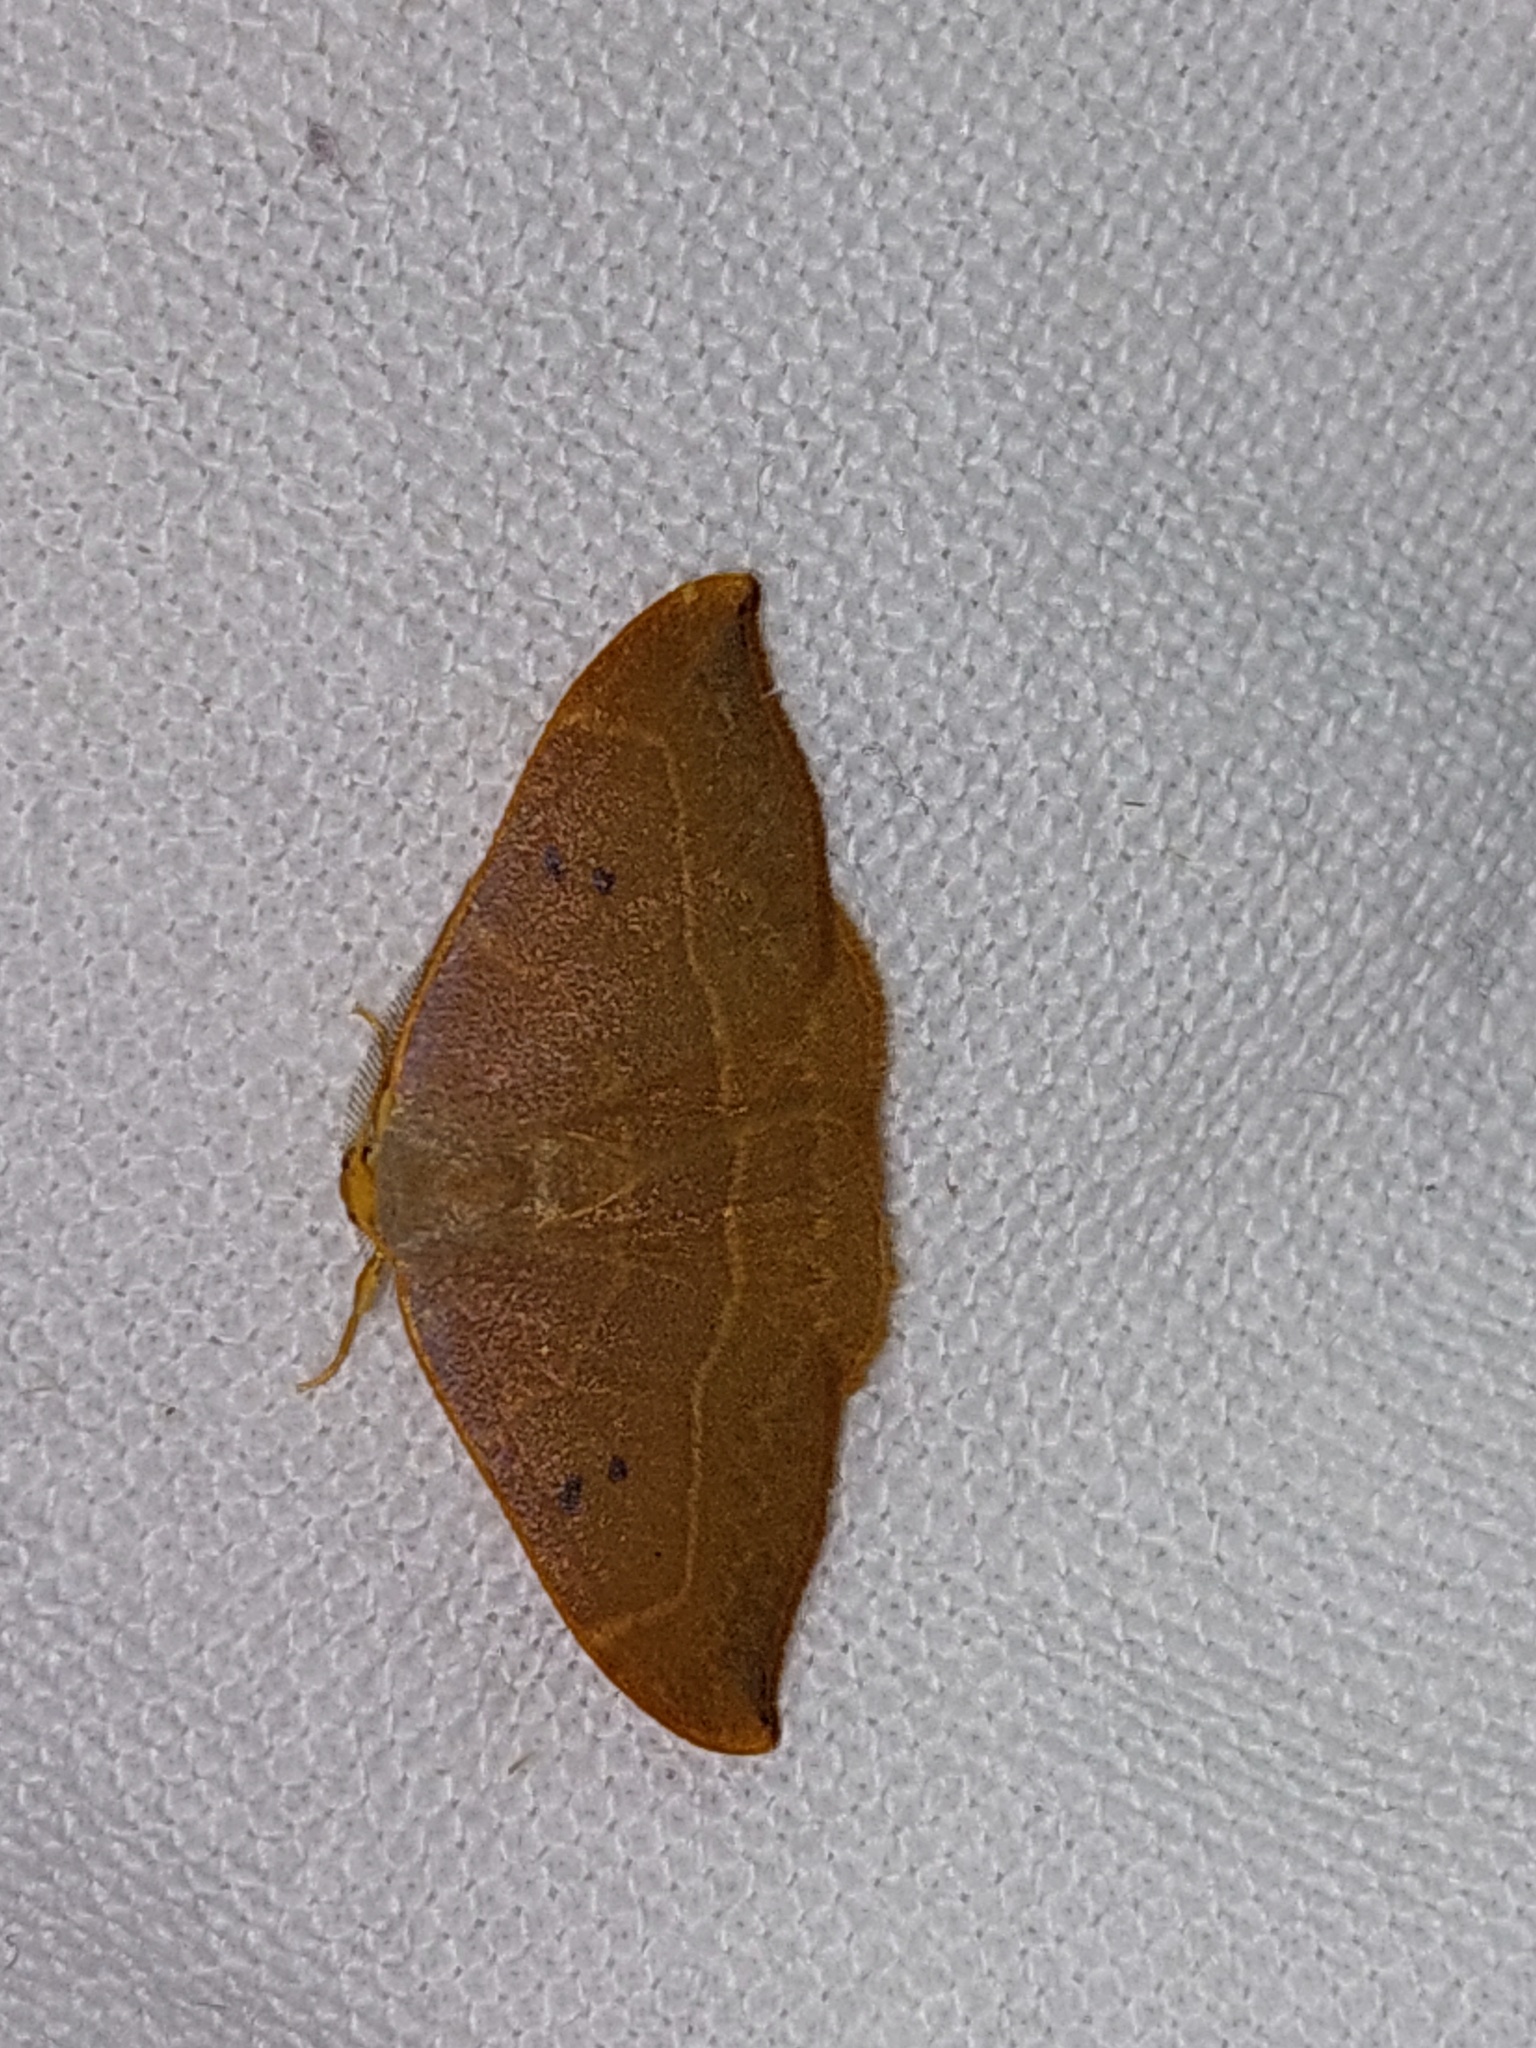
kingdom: Animalia
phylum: Arthropoda
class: Insecta
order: Lepidoptera
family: Drepanidae
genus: Watsonalla
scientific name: Watsonalla binaria
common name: Oak hook-tip
